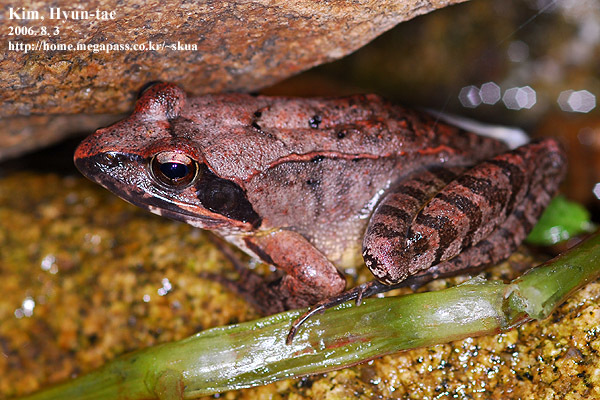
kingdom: Animalia
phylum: Chordata
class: Amphibia
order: Anura
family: Ranidae
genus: Rana
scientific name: Rana uenoi
